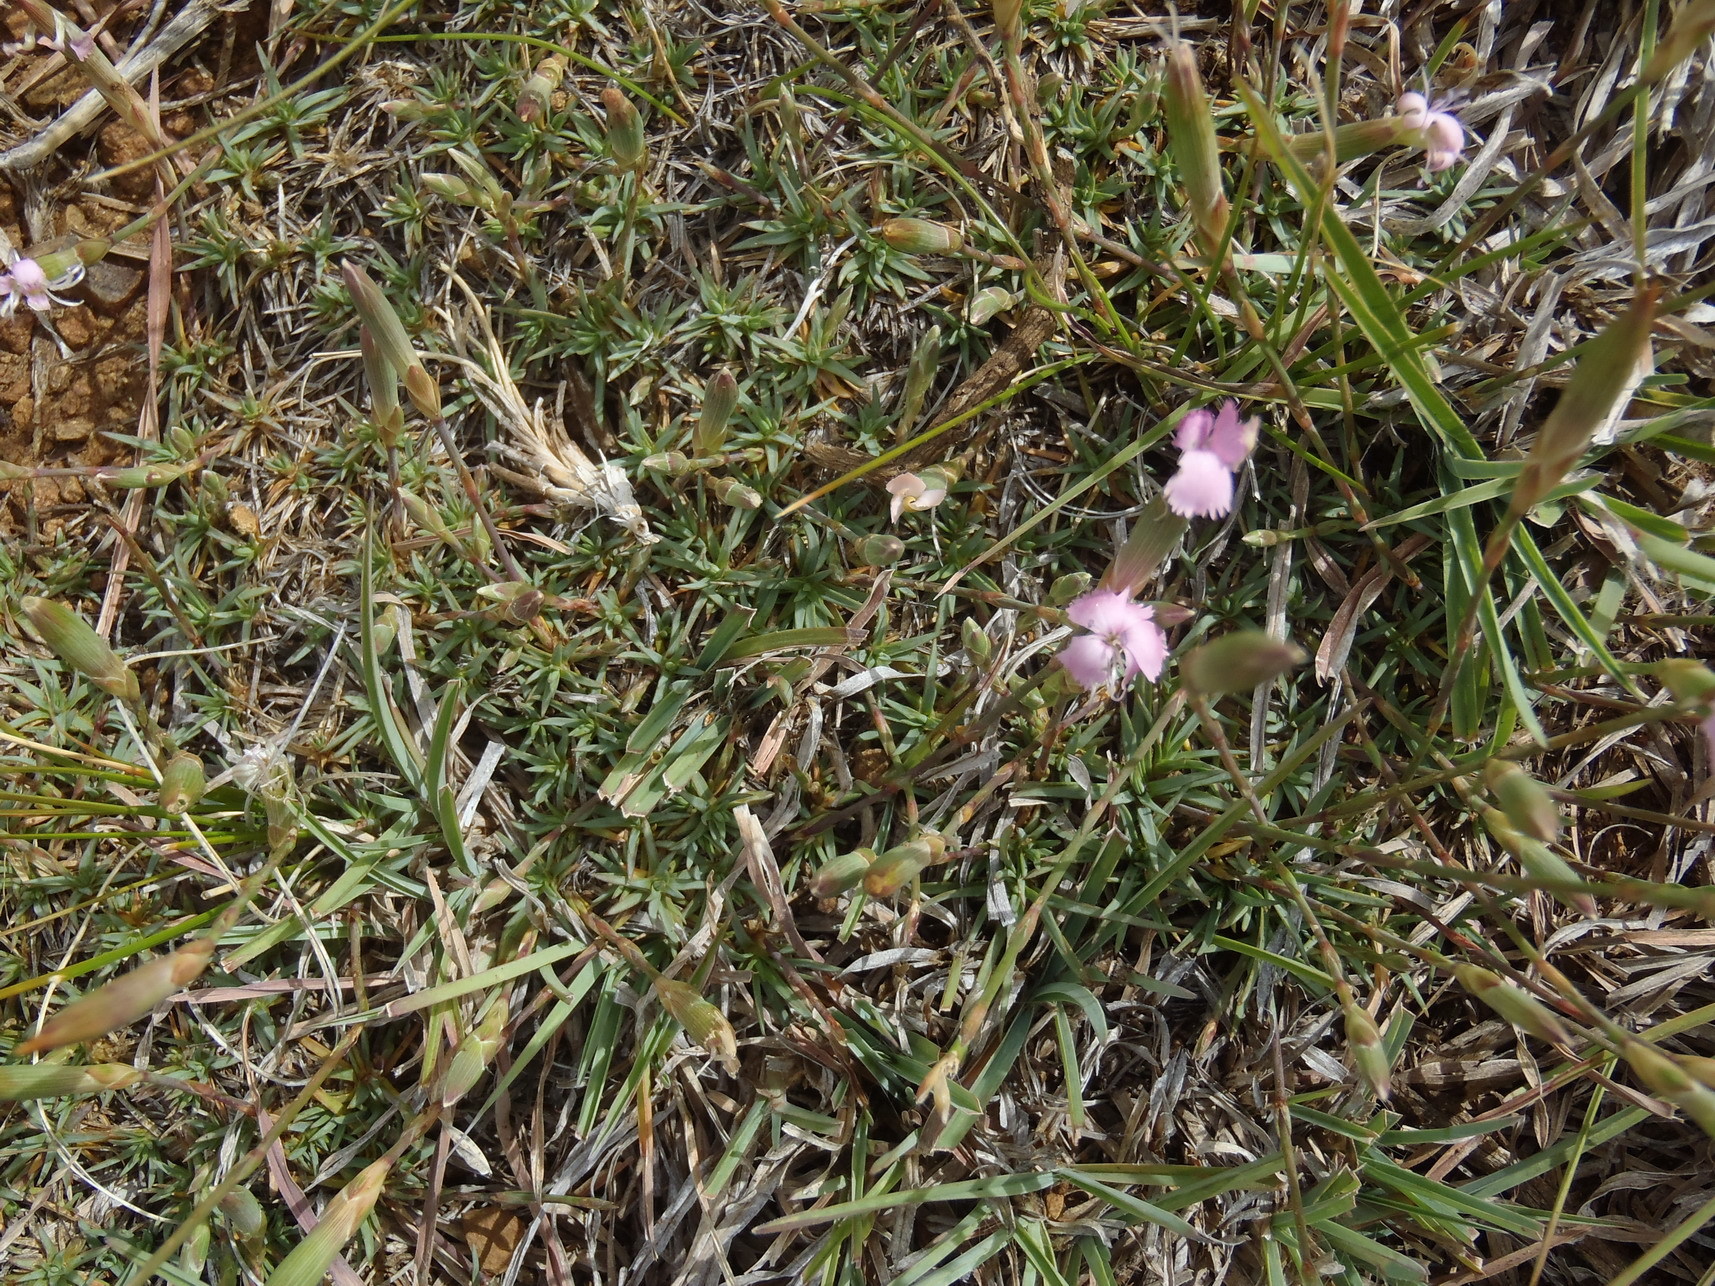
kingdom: Plantae
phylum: Tracheophyta
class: Magnoliopsida
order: Caryophyllales
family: Caryophyllaceae
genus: Dianthus
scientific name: Dianthus micropetalus
